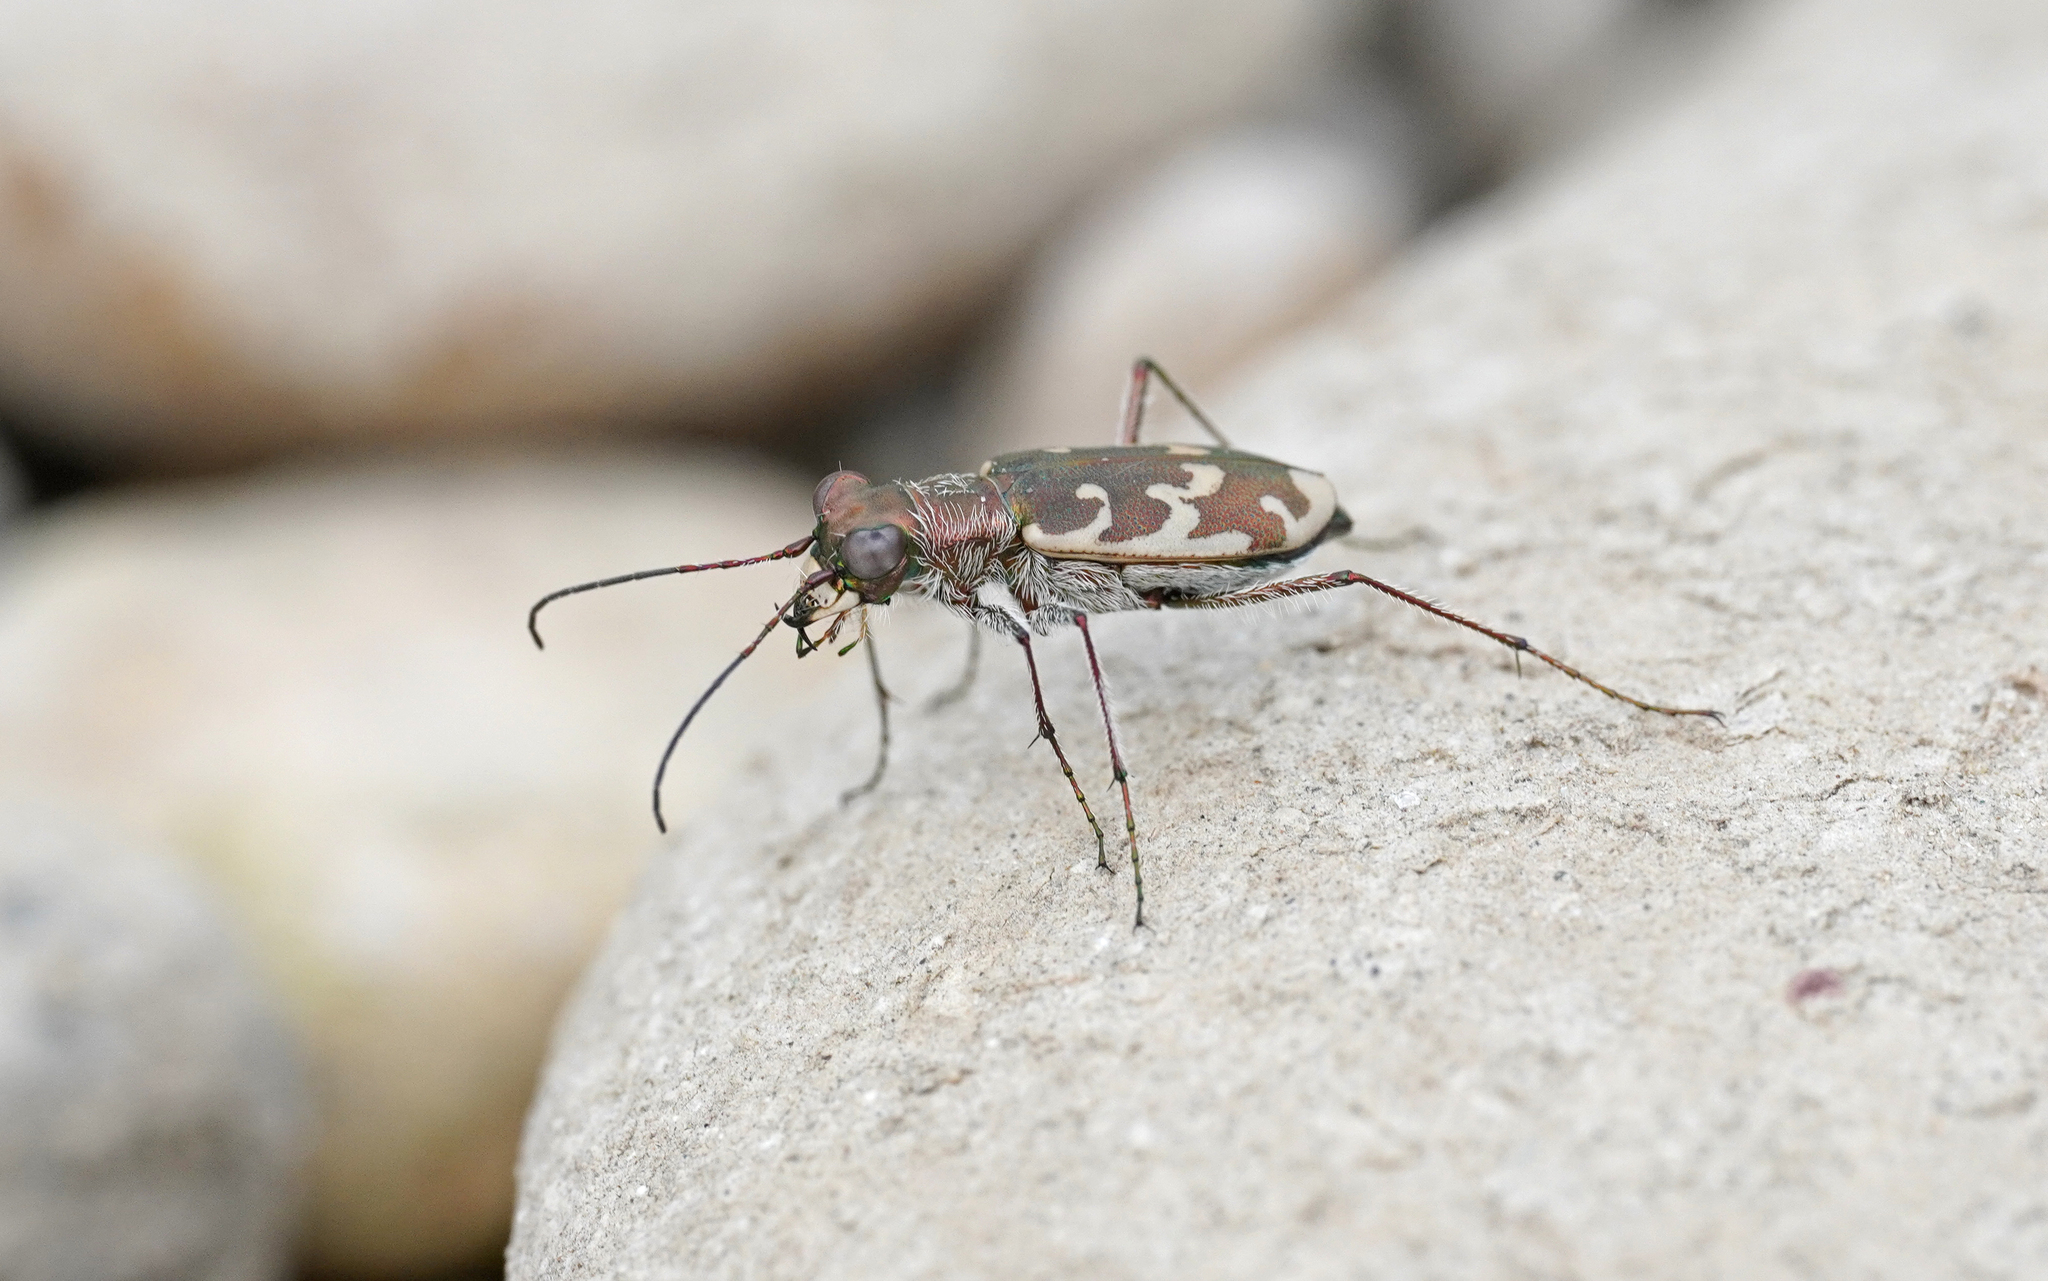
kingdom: Animalia
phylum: Arthropoda
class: Insecta
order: Coleoptera
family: Carabidae
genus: Cylindera
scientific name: Cylindera arenaria
